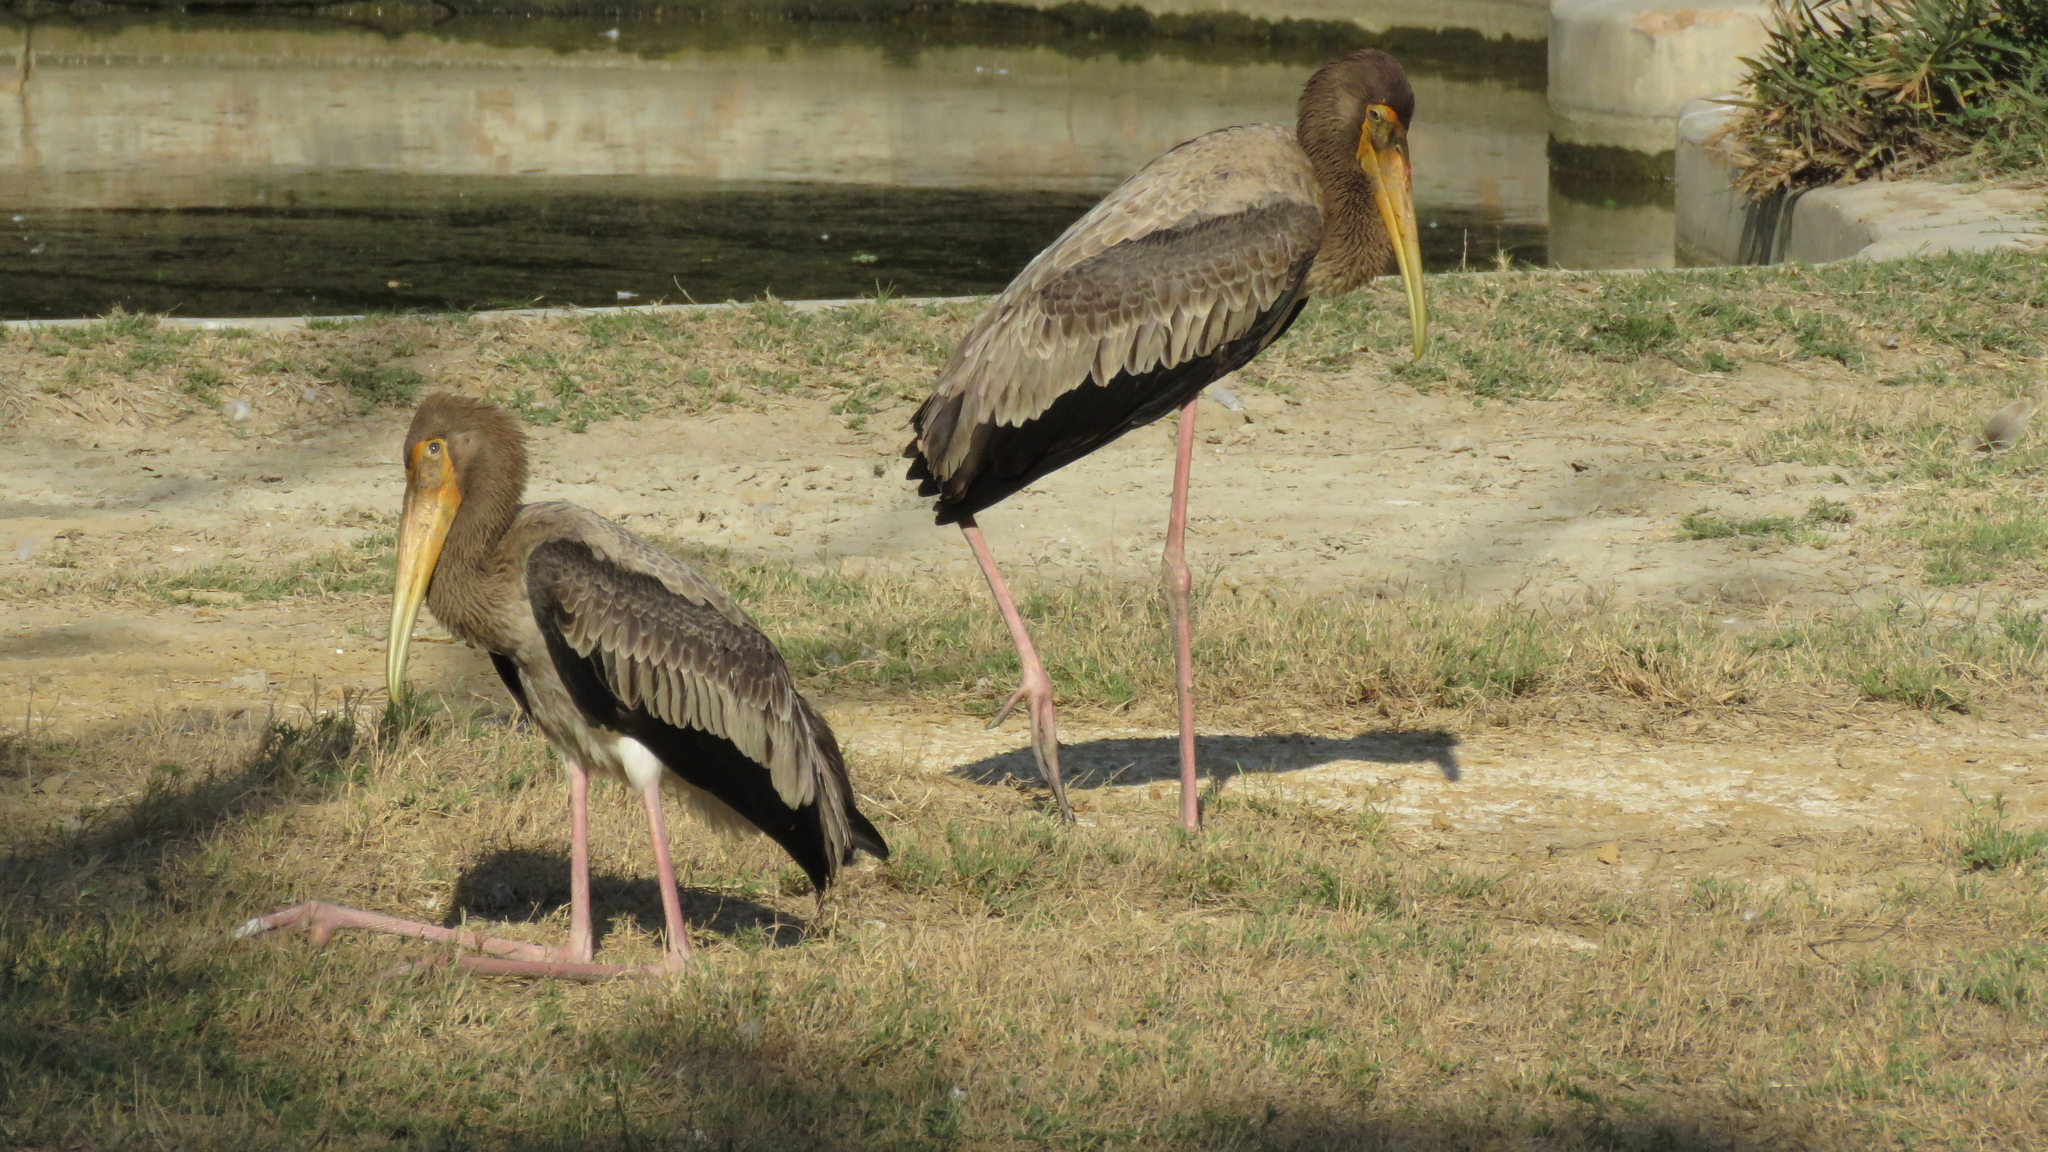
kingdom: Animalia
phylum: Chordata
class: Aves
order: Ciconiiformes
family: Ciconiidae
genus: Mycteria
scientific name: Mycteria leucocephala
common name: Painted stork
